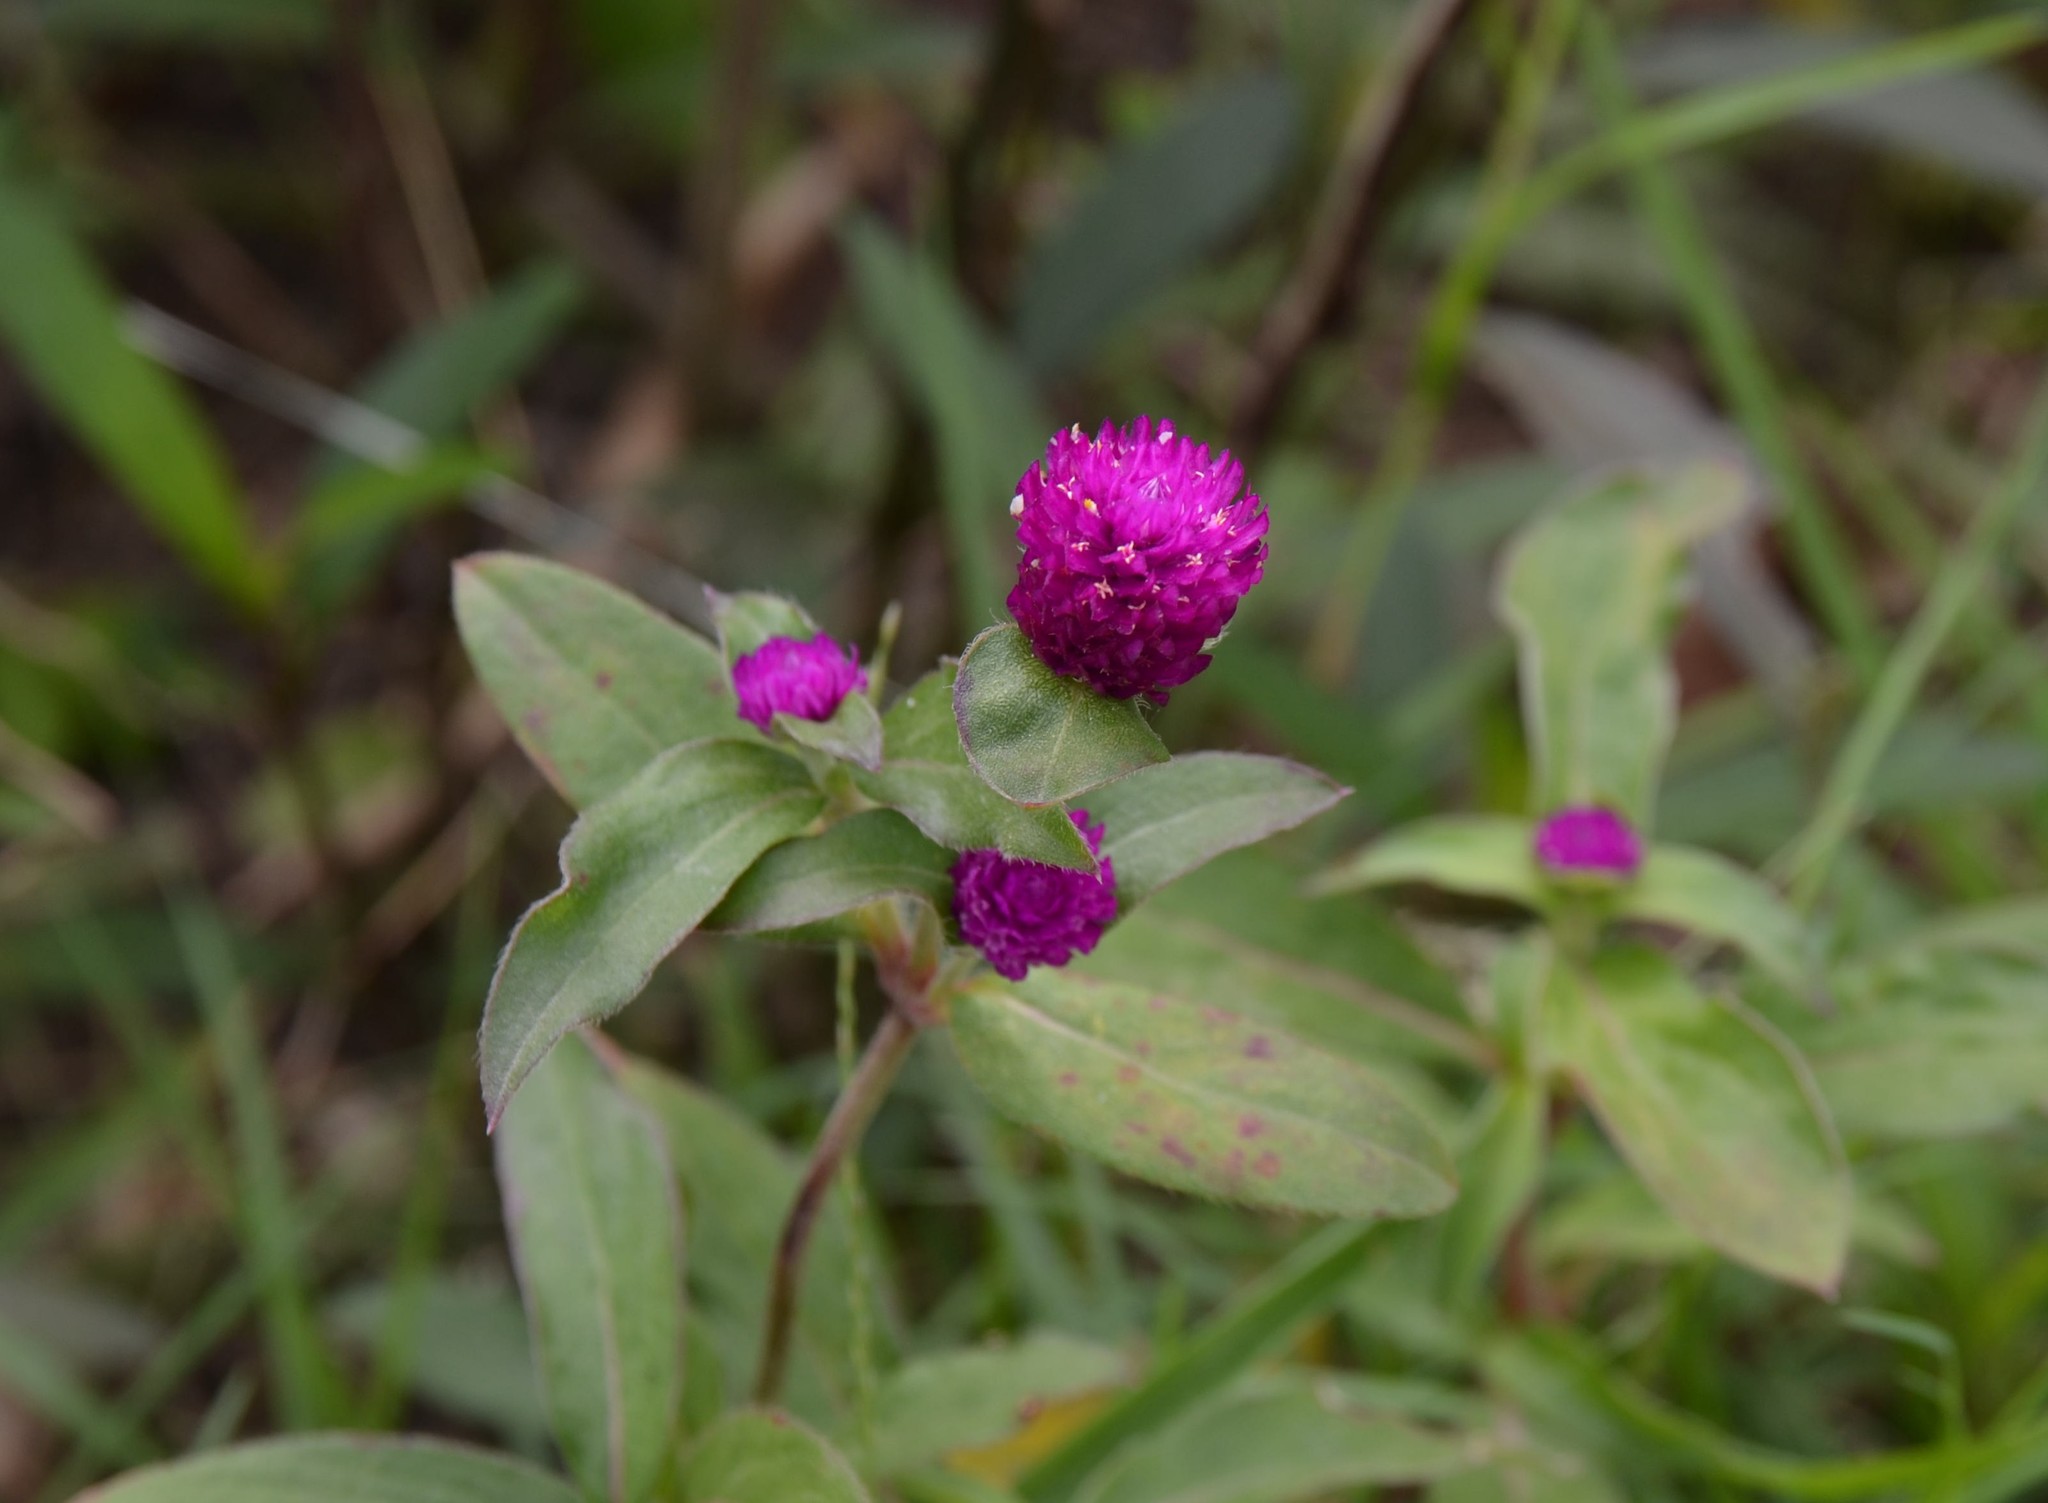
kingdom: Plantae
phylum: Tracheophyta
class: Magnoliopsida
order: Caryophyllales
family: Amaranthaceae
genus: Gomphrena
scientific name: Gomphrena globosa
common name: Common globe amaranth
